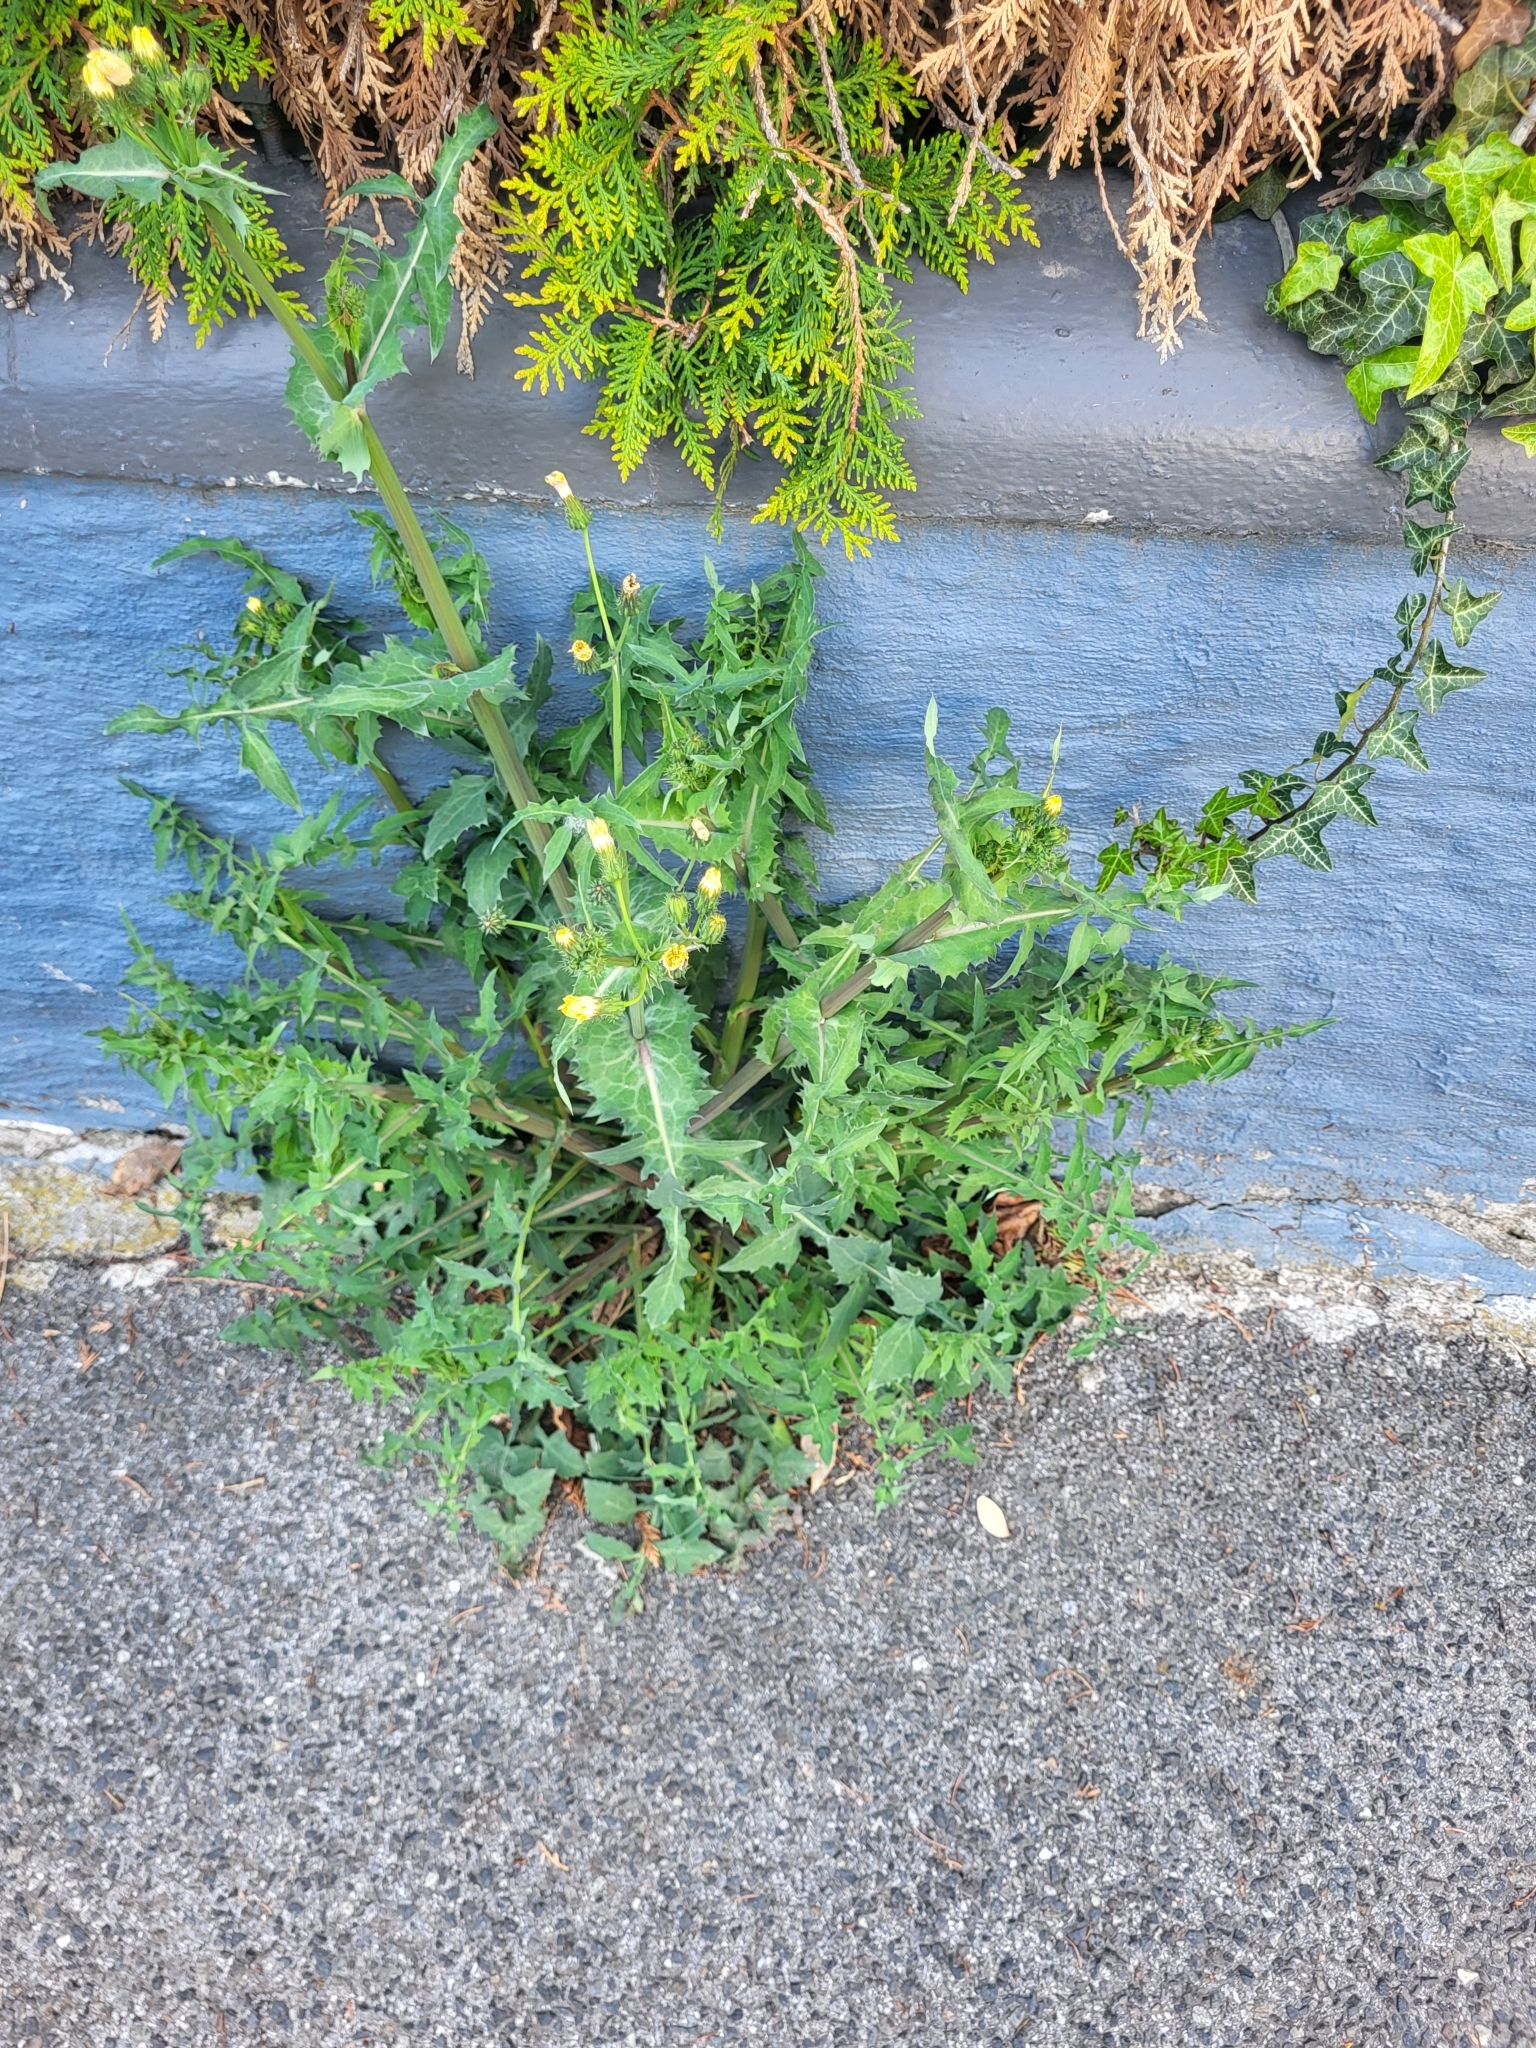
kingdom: Plantae
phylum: Tracheophyta
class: Magnoliopsida
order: Asterales
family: Asteraceae
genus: Sonchus
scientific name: Sonchus oleraceus
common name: Common sowthistle
